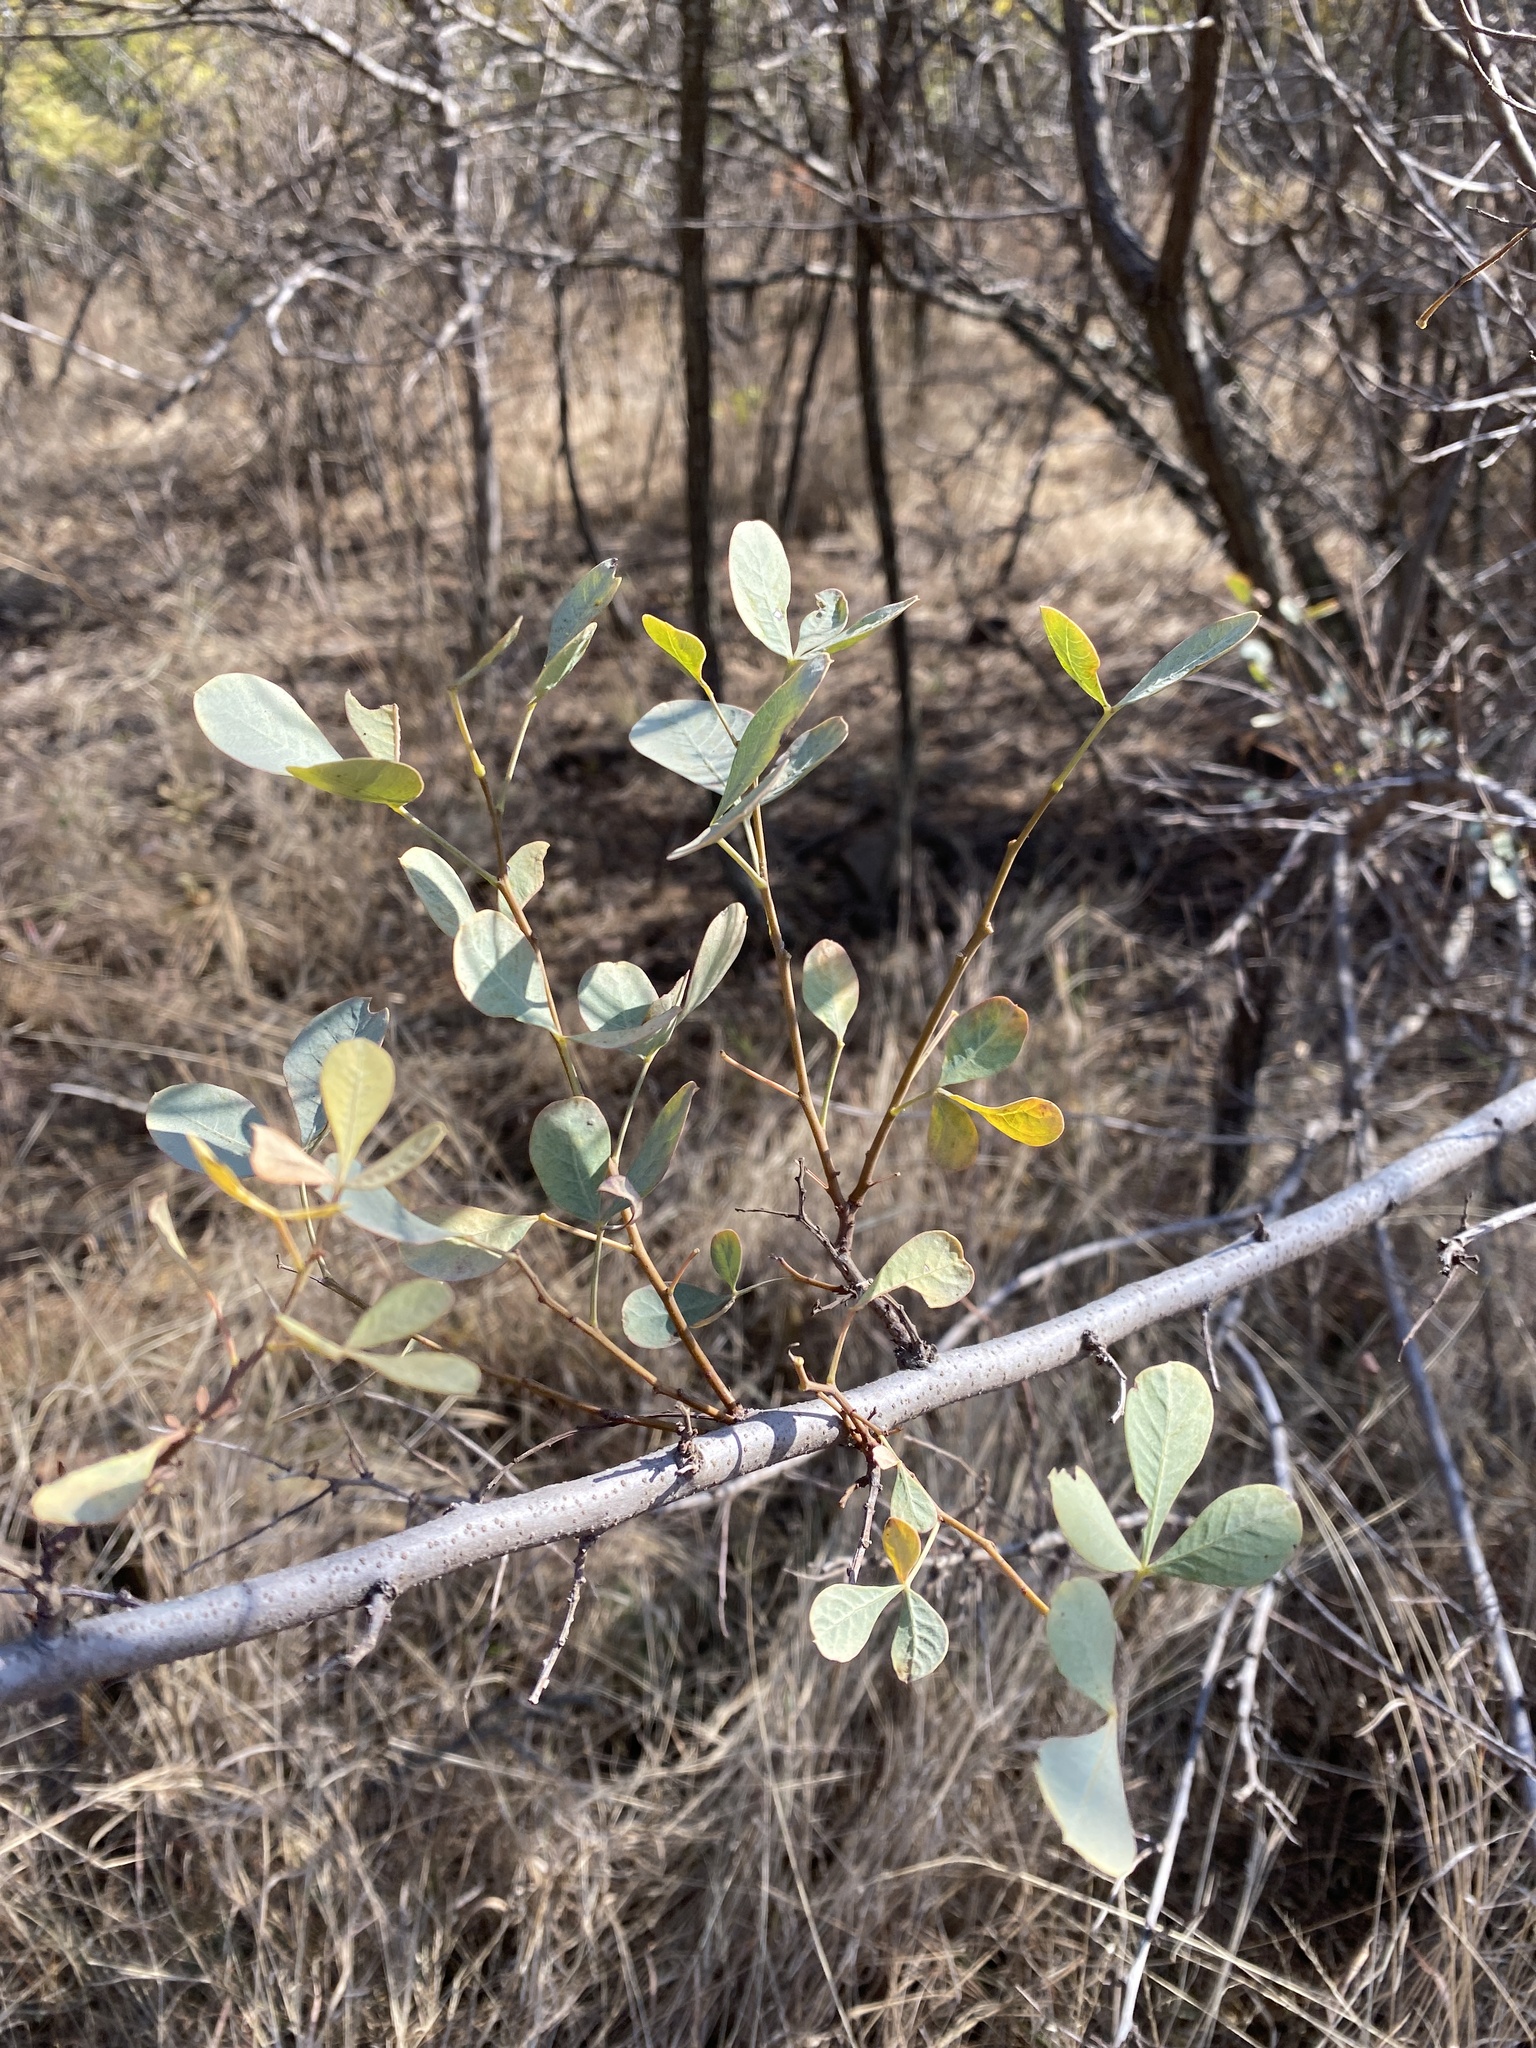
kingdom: Plantae
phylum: Tracheophyta
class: Magnoliopsida
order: Sapindales
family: Anacardiaceae
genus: Searsia
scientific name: Searsia zeyheri
